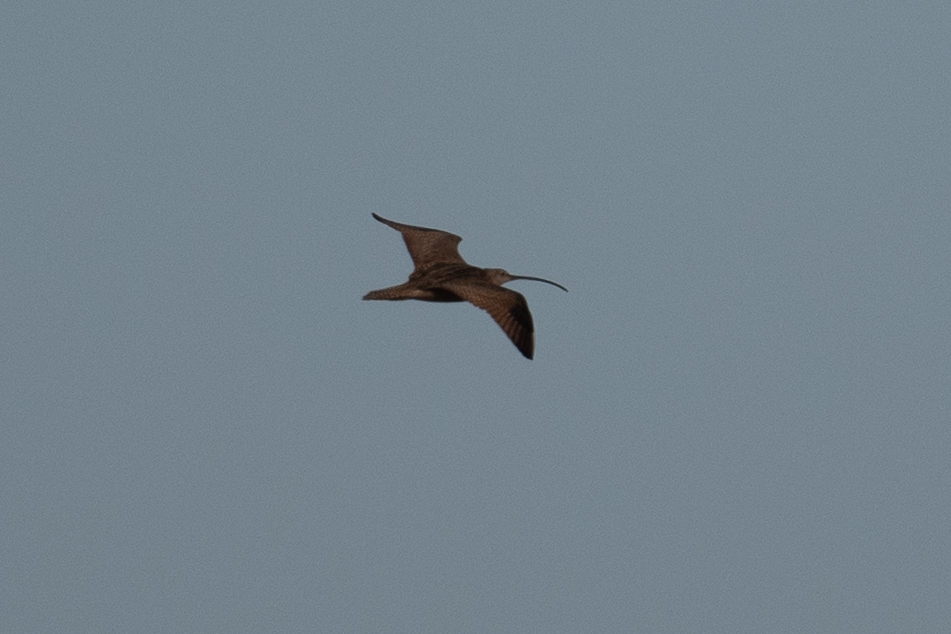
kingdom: Animalia
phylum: Chordata
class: Aves
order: Charadriiformes
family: Scolopacidae
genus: Numenius
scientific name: Numenius americanus
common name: Long-billed curlew
